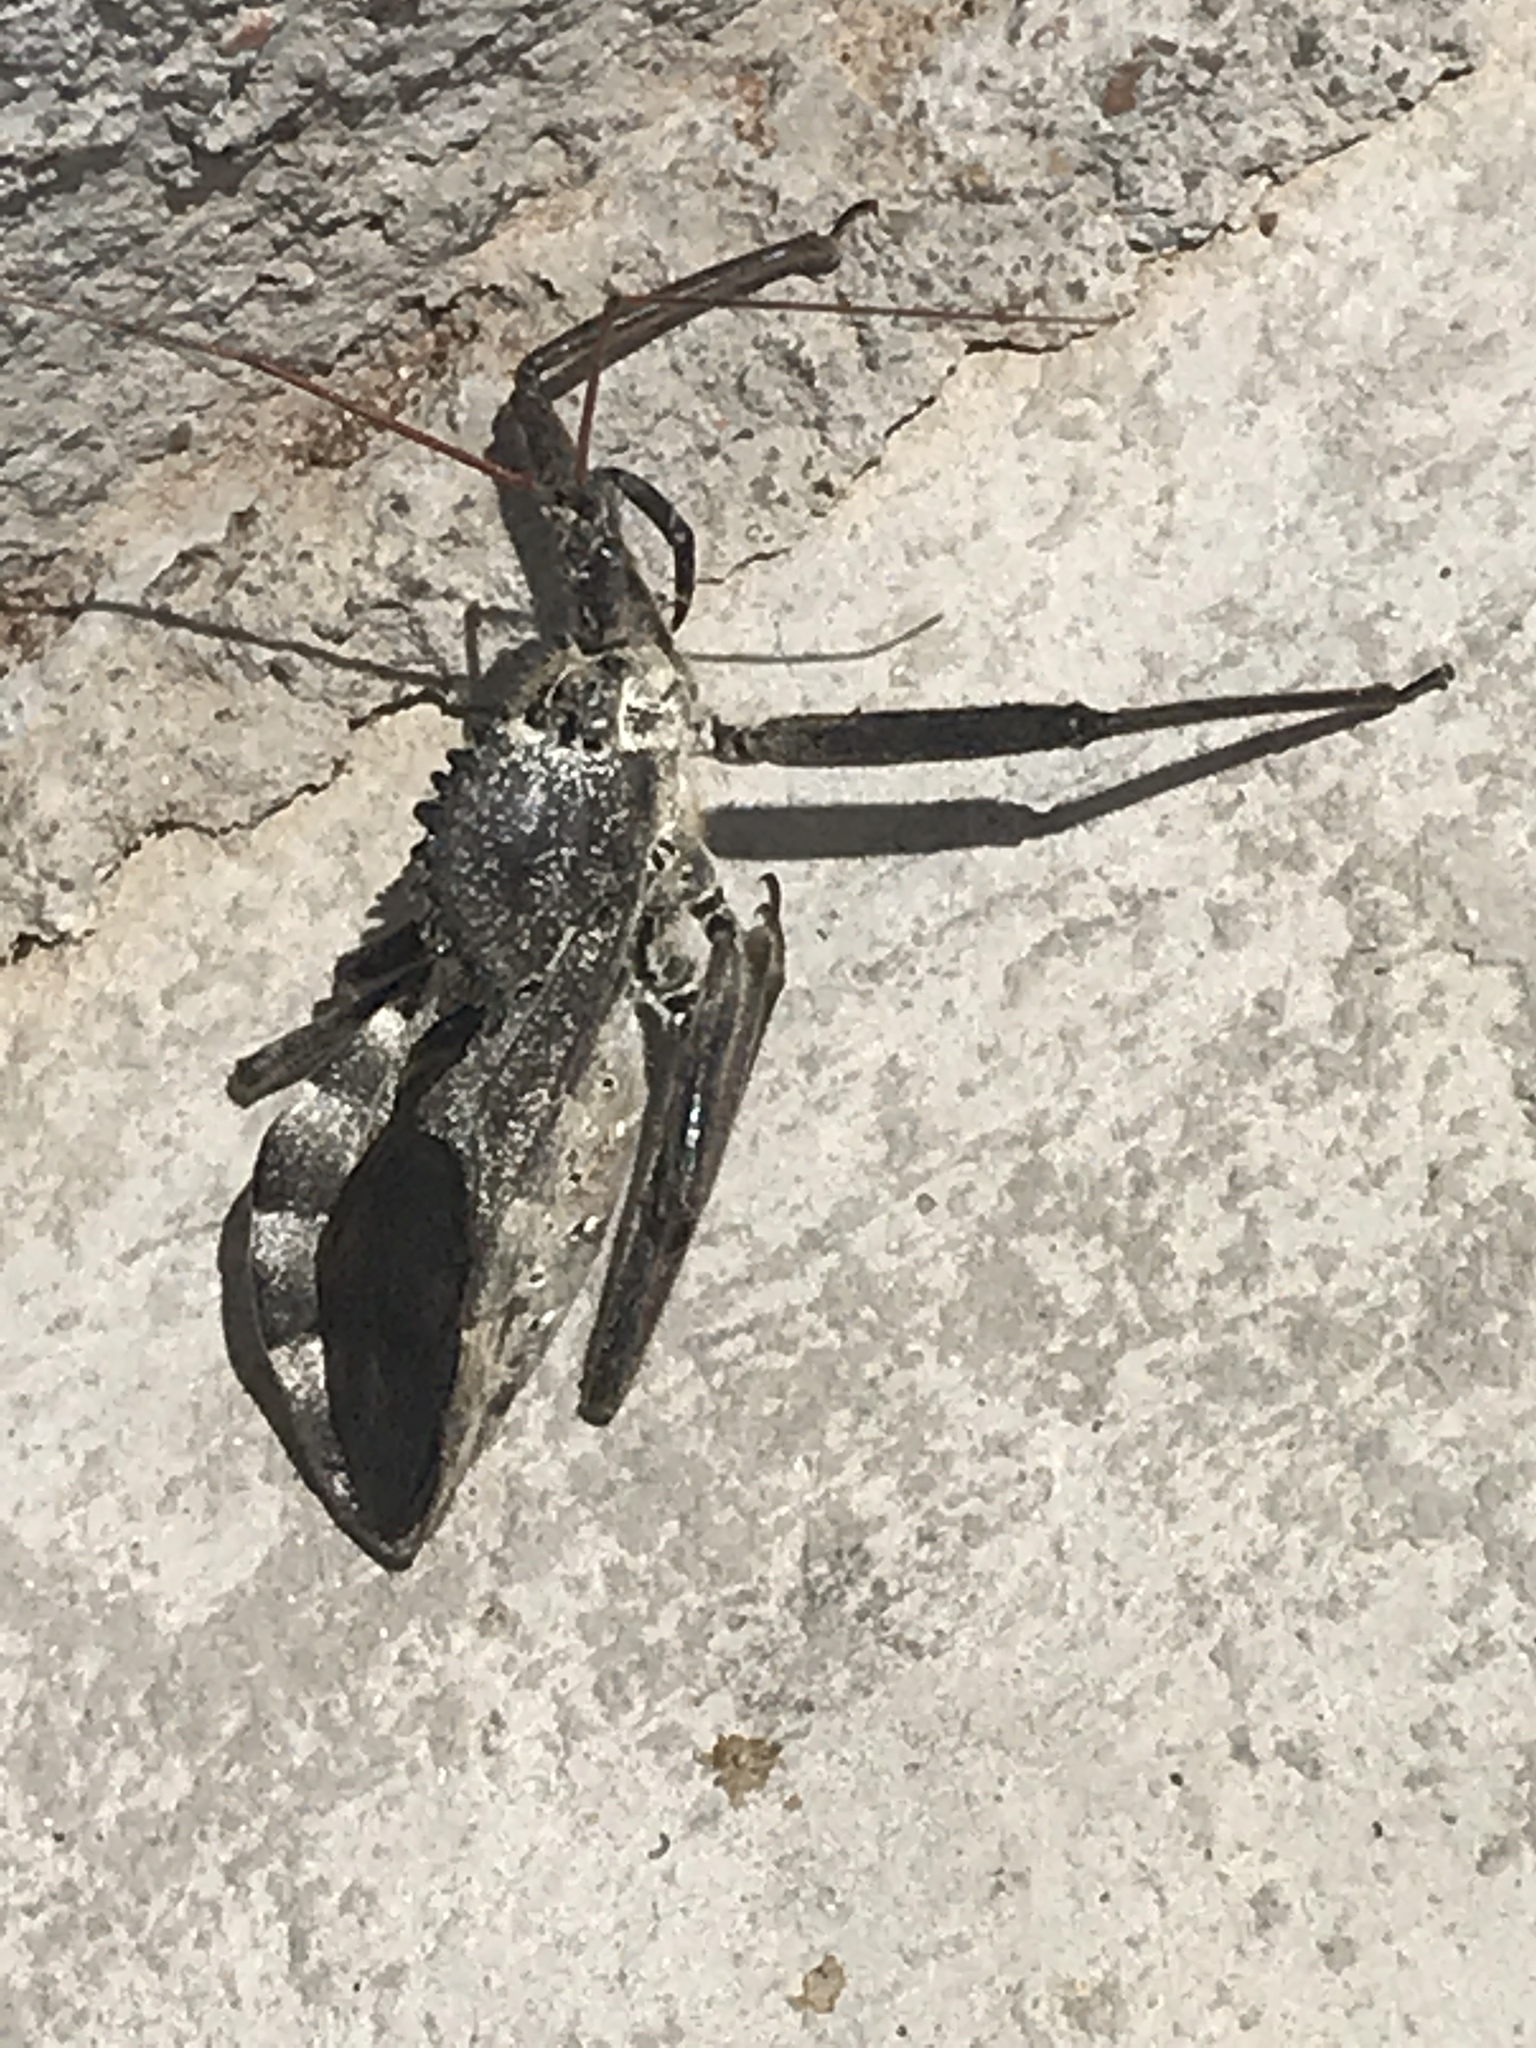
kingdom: Animalia
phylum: Arthropoda
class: Insecta
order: Hemiptera
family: Reduviidae
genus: Arilus
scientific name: Arilus cristatus
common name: North american wheel bug
